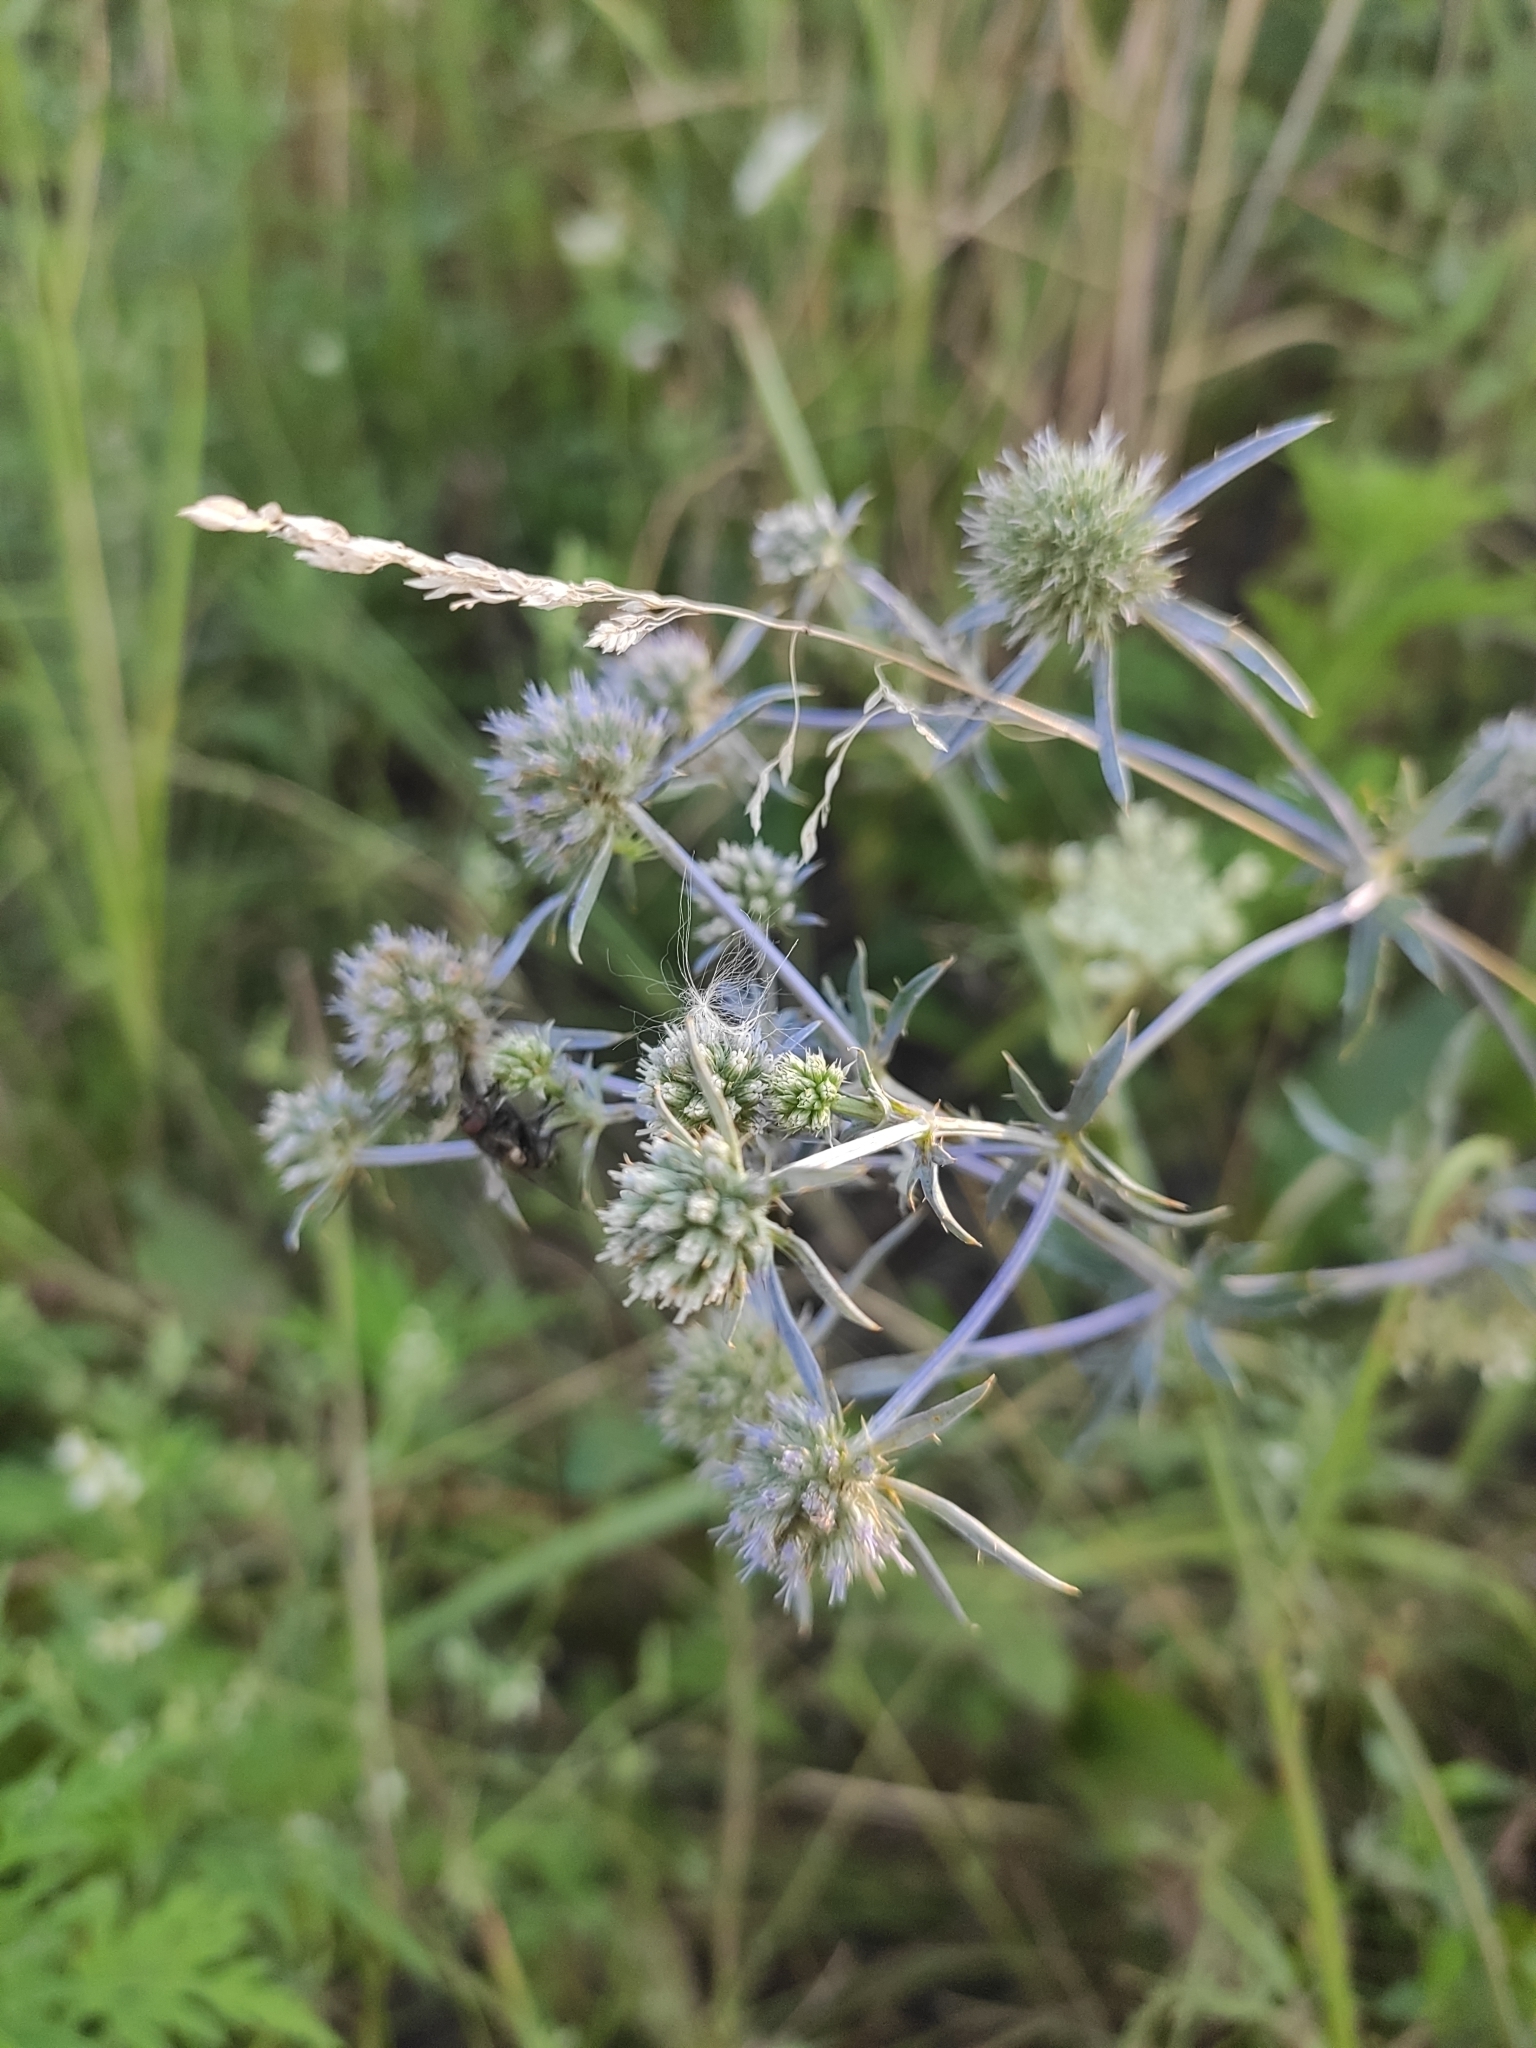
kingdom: Plantae
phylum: Tracheophyta
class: Magnoliopsida
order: Apiales
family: Apiaceae
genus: Eryngium
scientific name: Eryngium planum
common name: Blue eryngo
